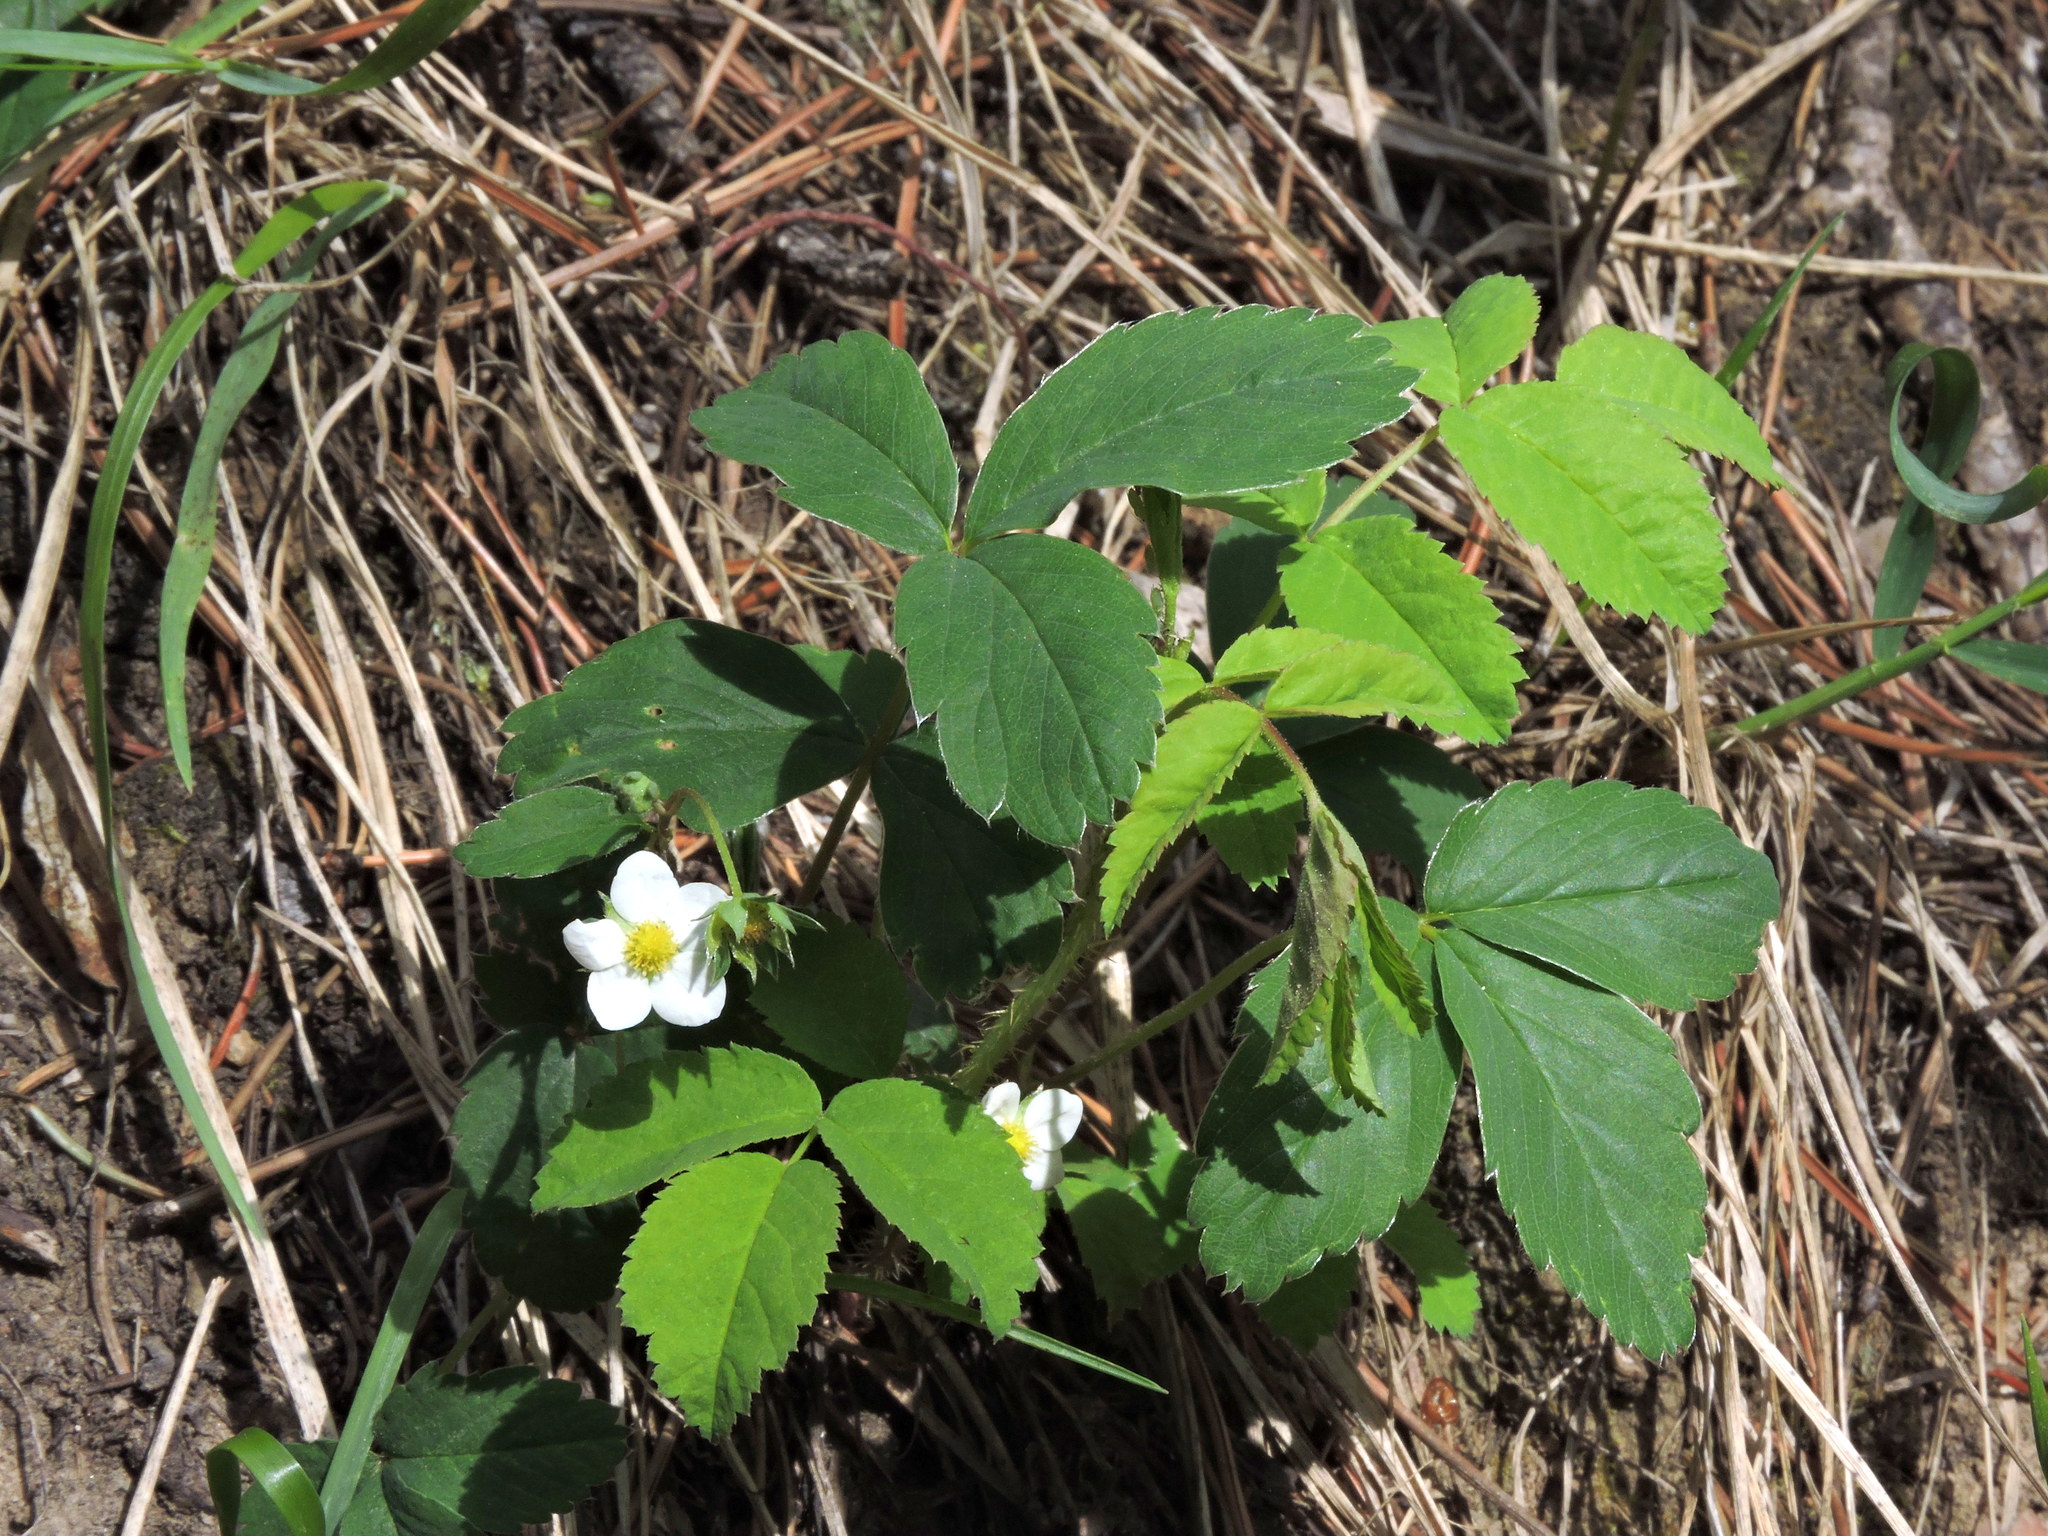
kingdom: Plantae
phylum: Tracheophyta
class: Magnoliopsida
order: Rosales
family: Rosaceae
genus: Fragaria
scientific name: Fragaria virginiana
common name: Thickleaved wild strawberry
